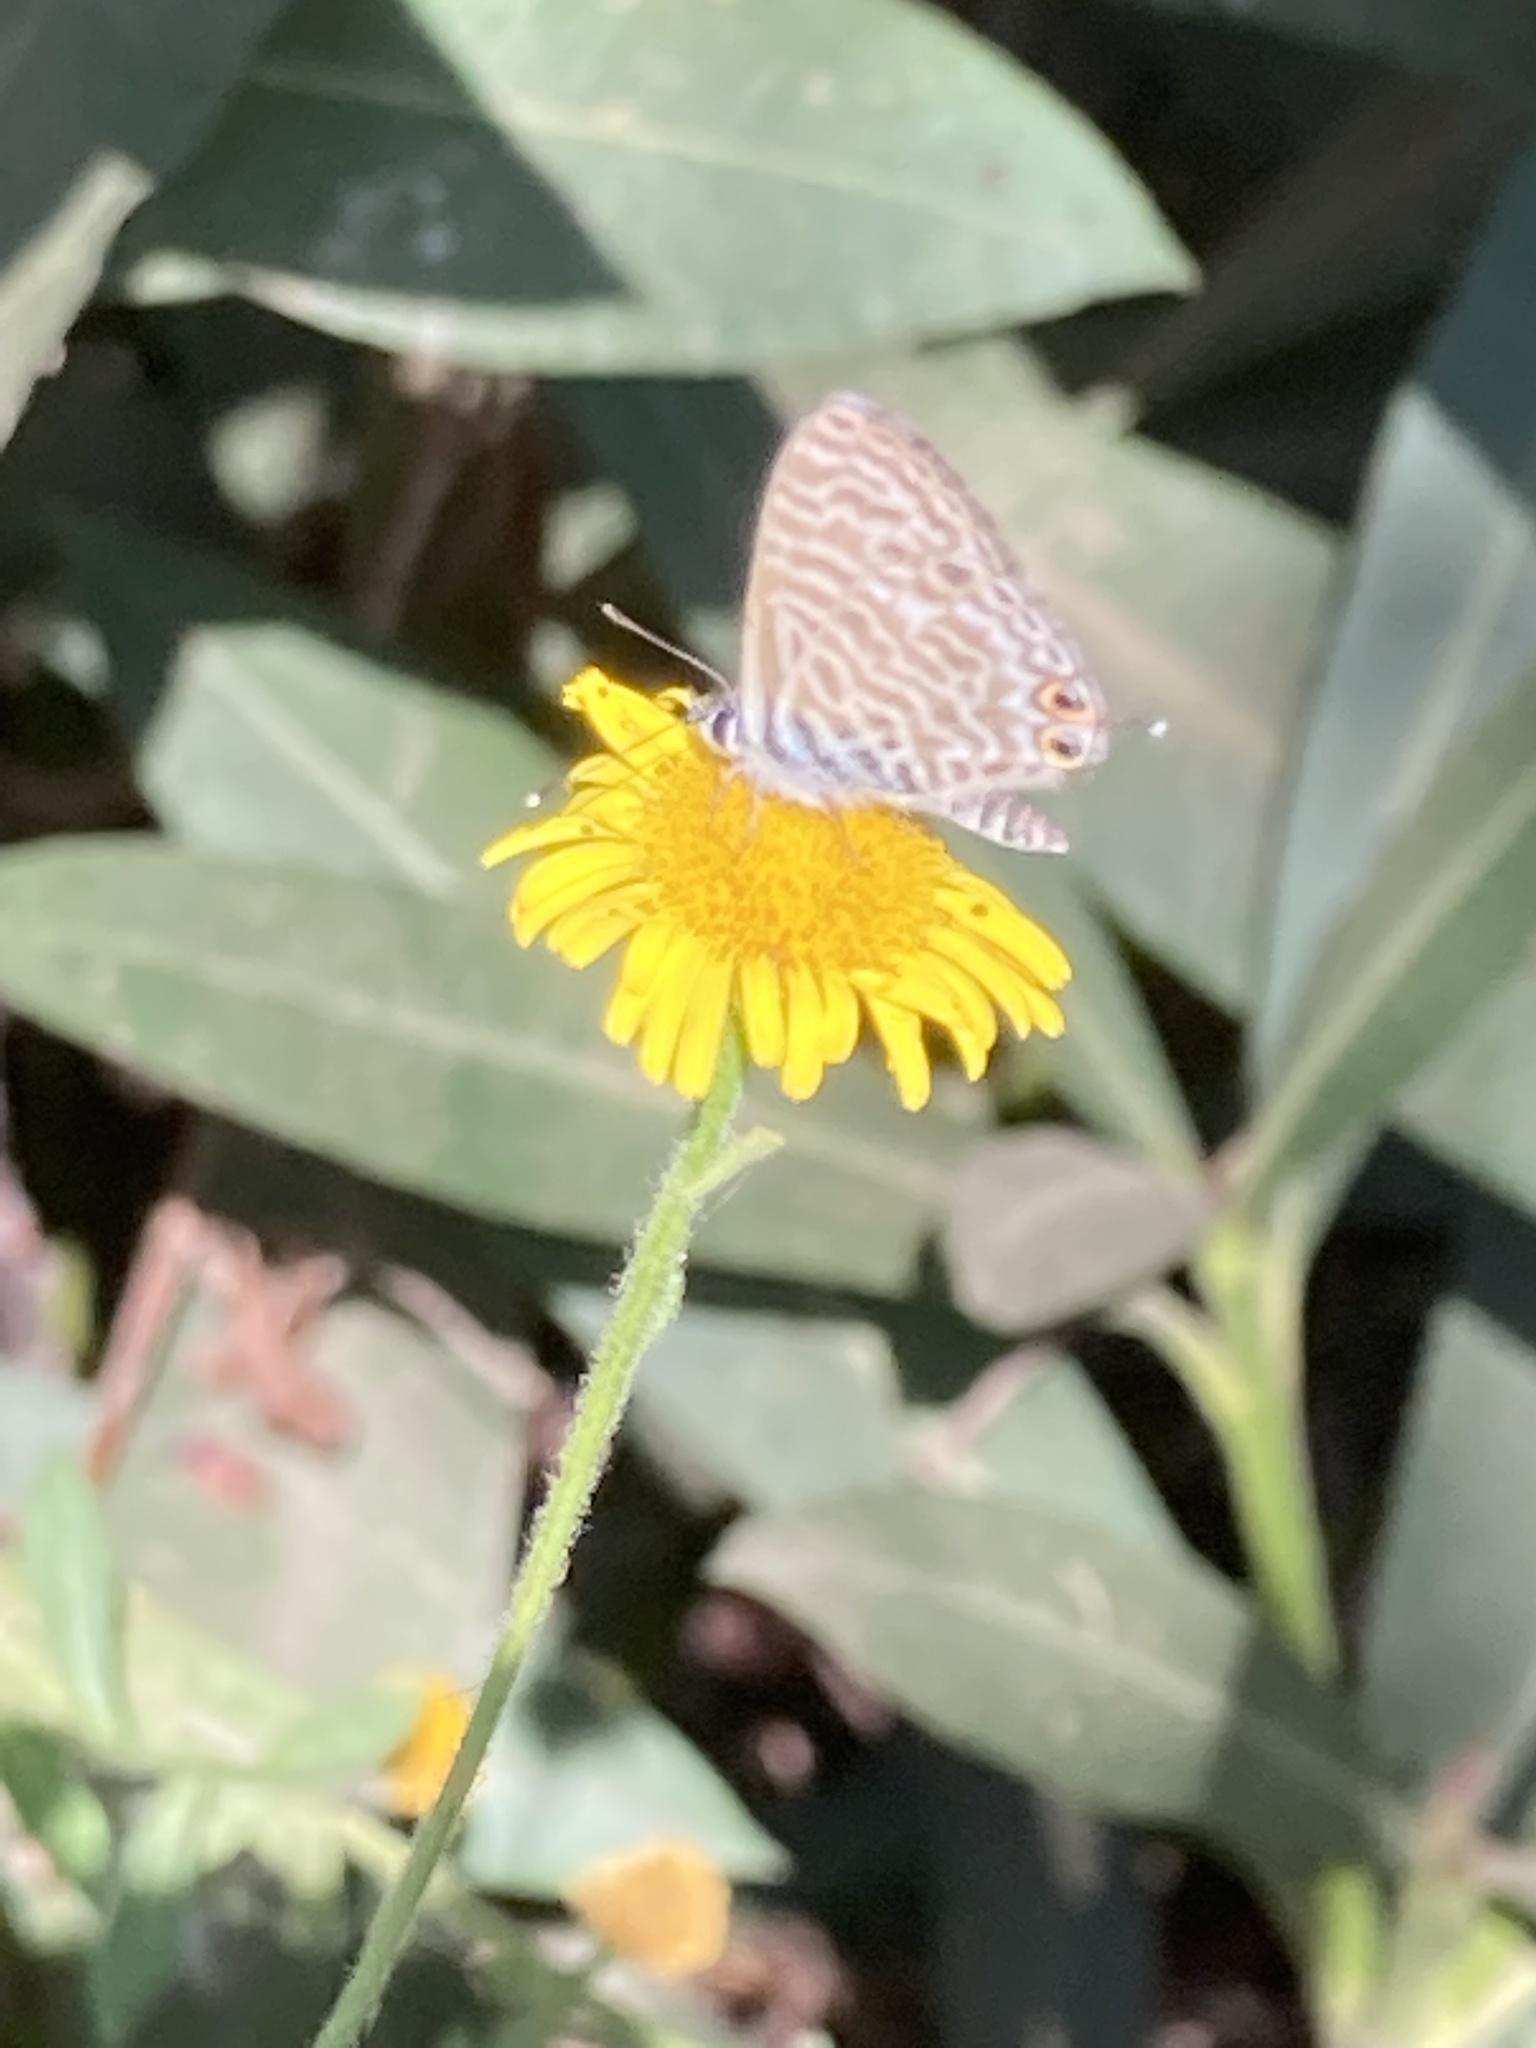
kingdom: Animalia
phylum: Arthropoda
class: Insecta
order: Lepidoptera
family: Lycaenidae
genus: Leptotes
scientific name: Leptotes pirithous
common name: Lang's short-tailed blue
